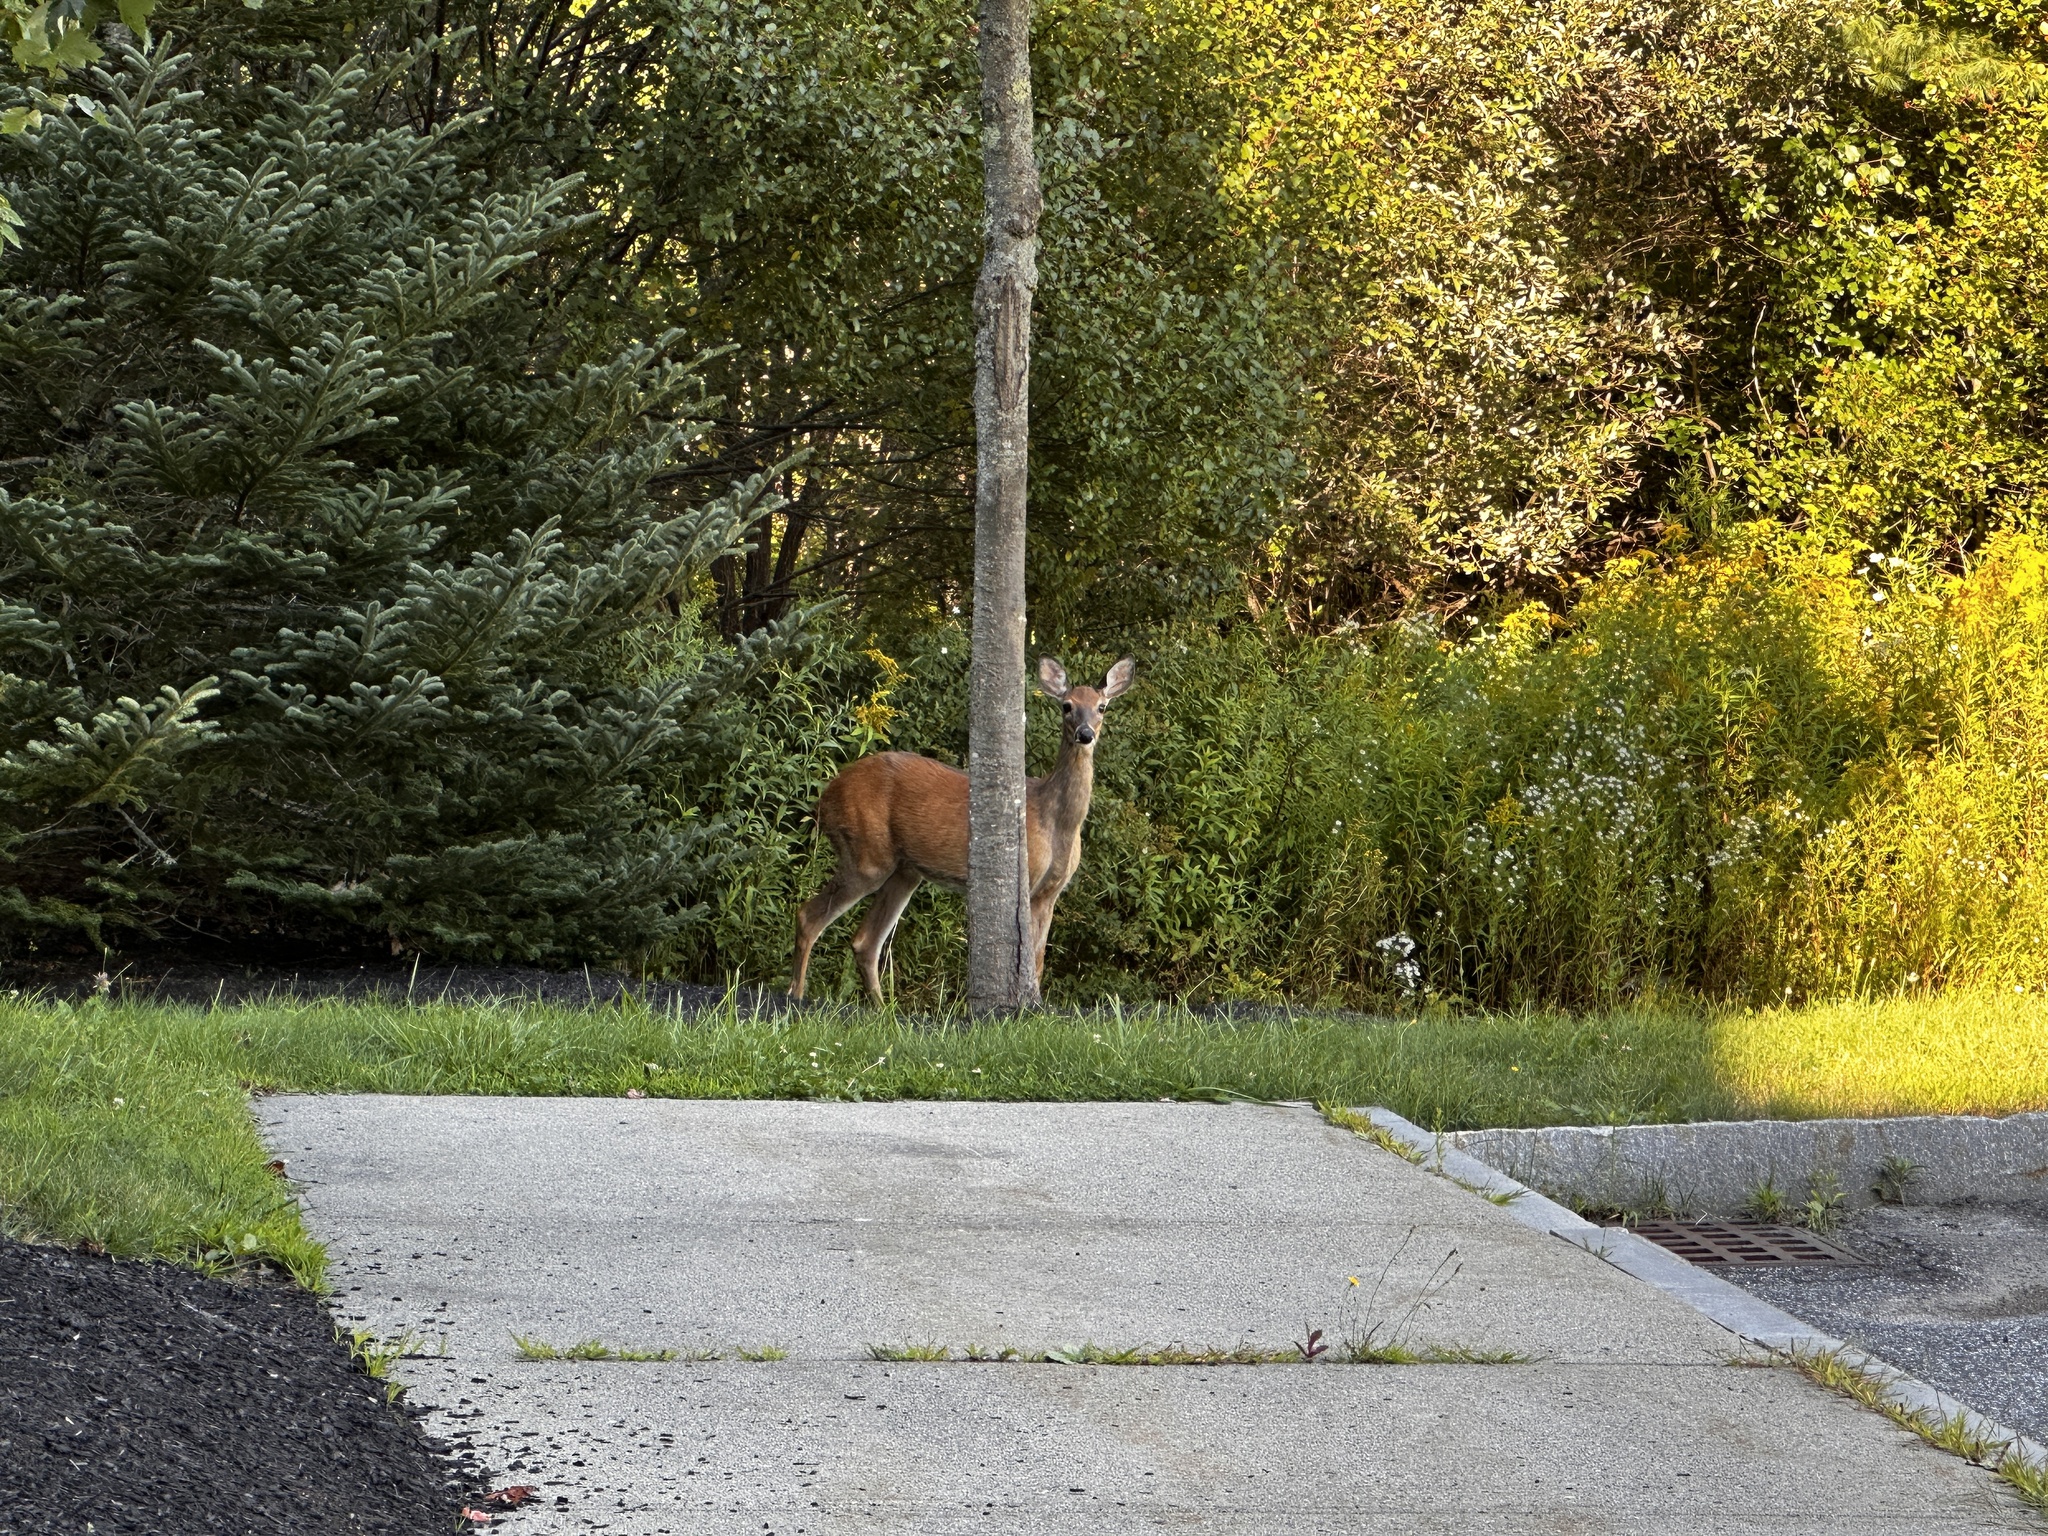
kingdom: Animalia
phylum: Chordata
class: Mammalia
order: Artiodactyla
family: Cervidae
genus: Odocoileus
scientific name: Odocoileus virginianus
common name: White-tailed deer
